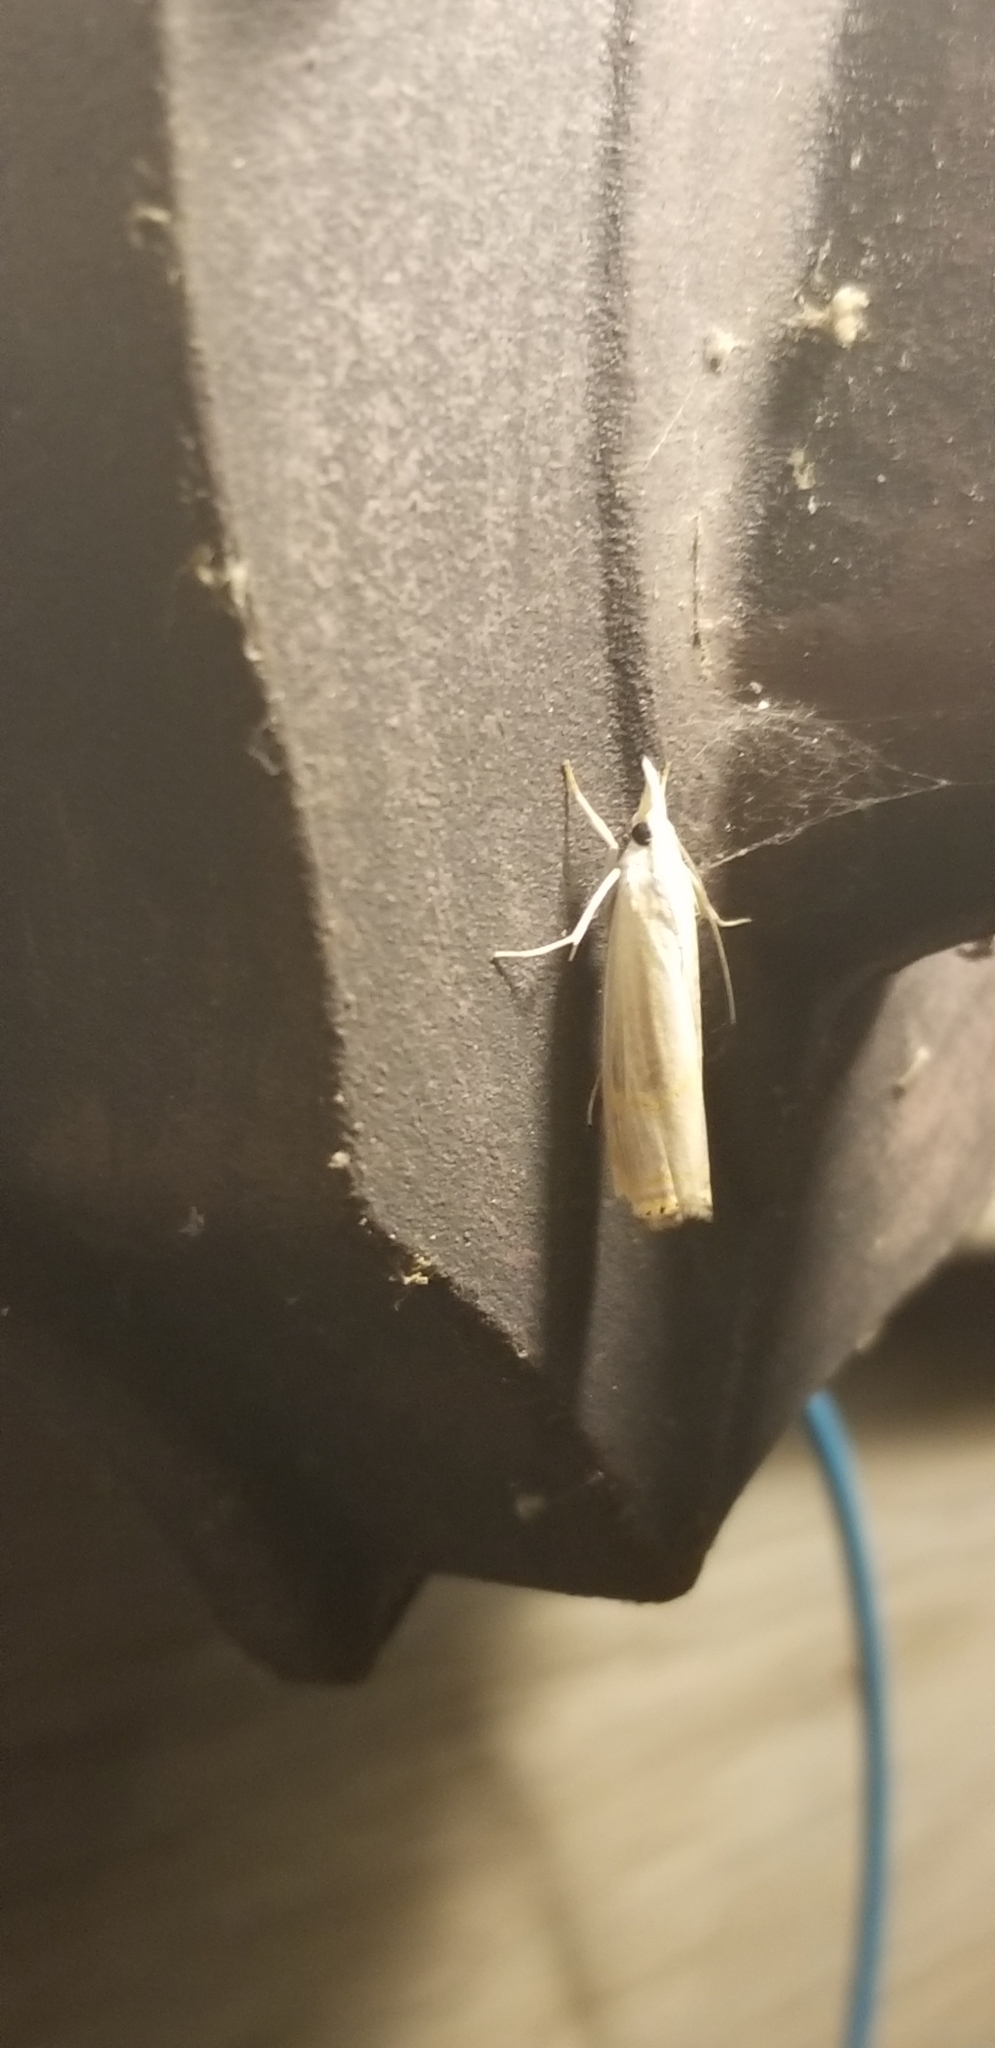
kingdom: Animalia
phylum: Arthropoda
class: Insecta
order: Lepidoptera
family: Crambidae
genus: Parapediasia
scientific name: Parapediasia decorellus
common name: Graceful grass-veneer
